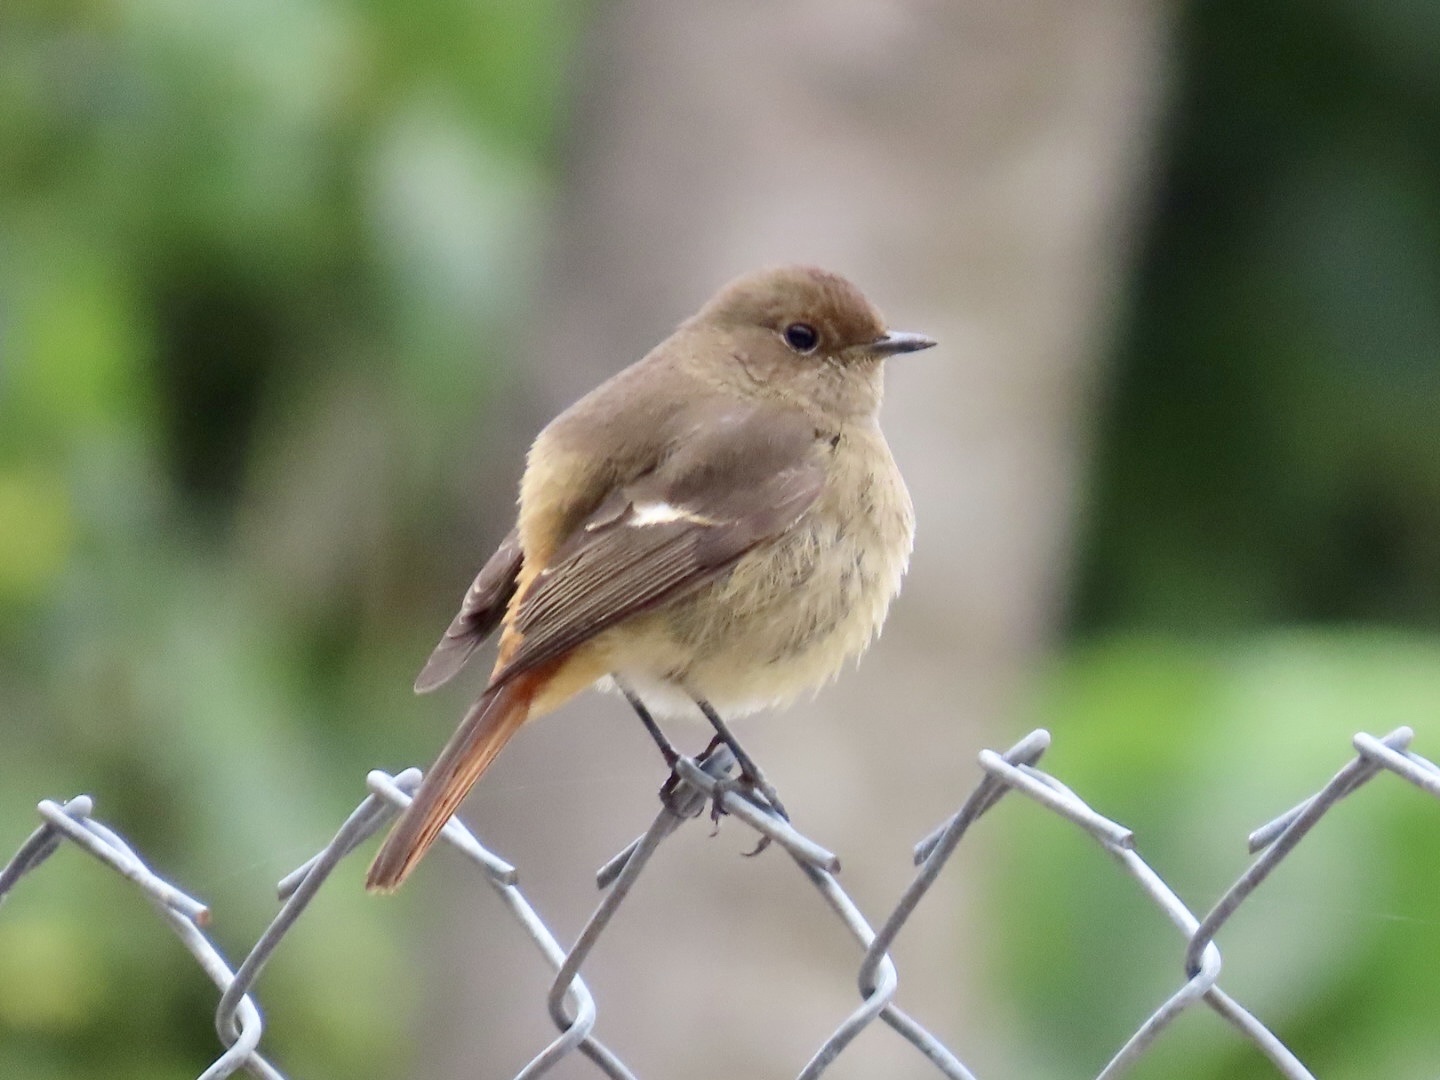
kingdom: Animalia
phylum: Chordata
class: Aves
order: Passeriformes
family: Muscicapidae
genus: Phoenicurus
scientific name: Phoenicurus auroreus
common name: Daurian redstart
